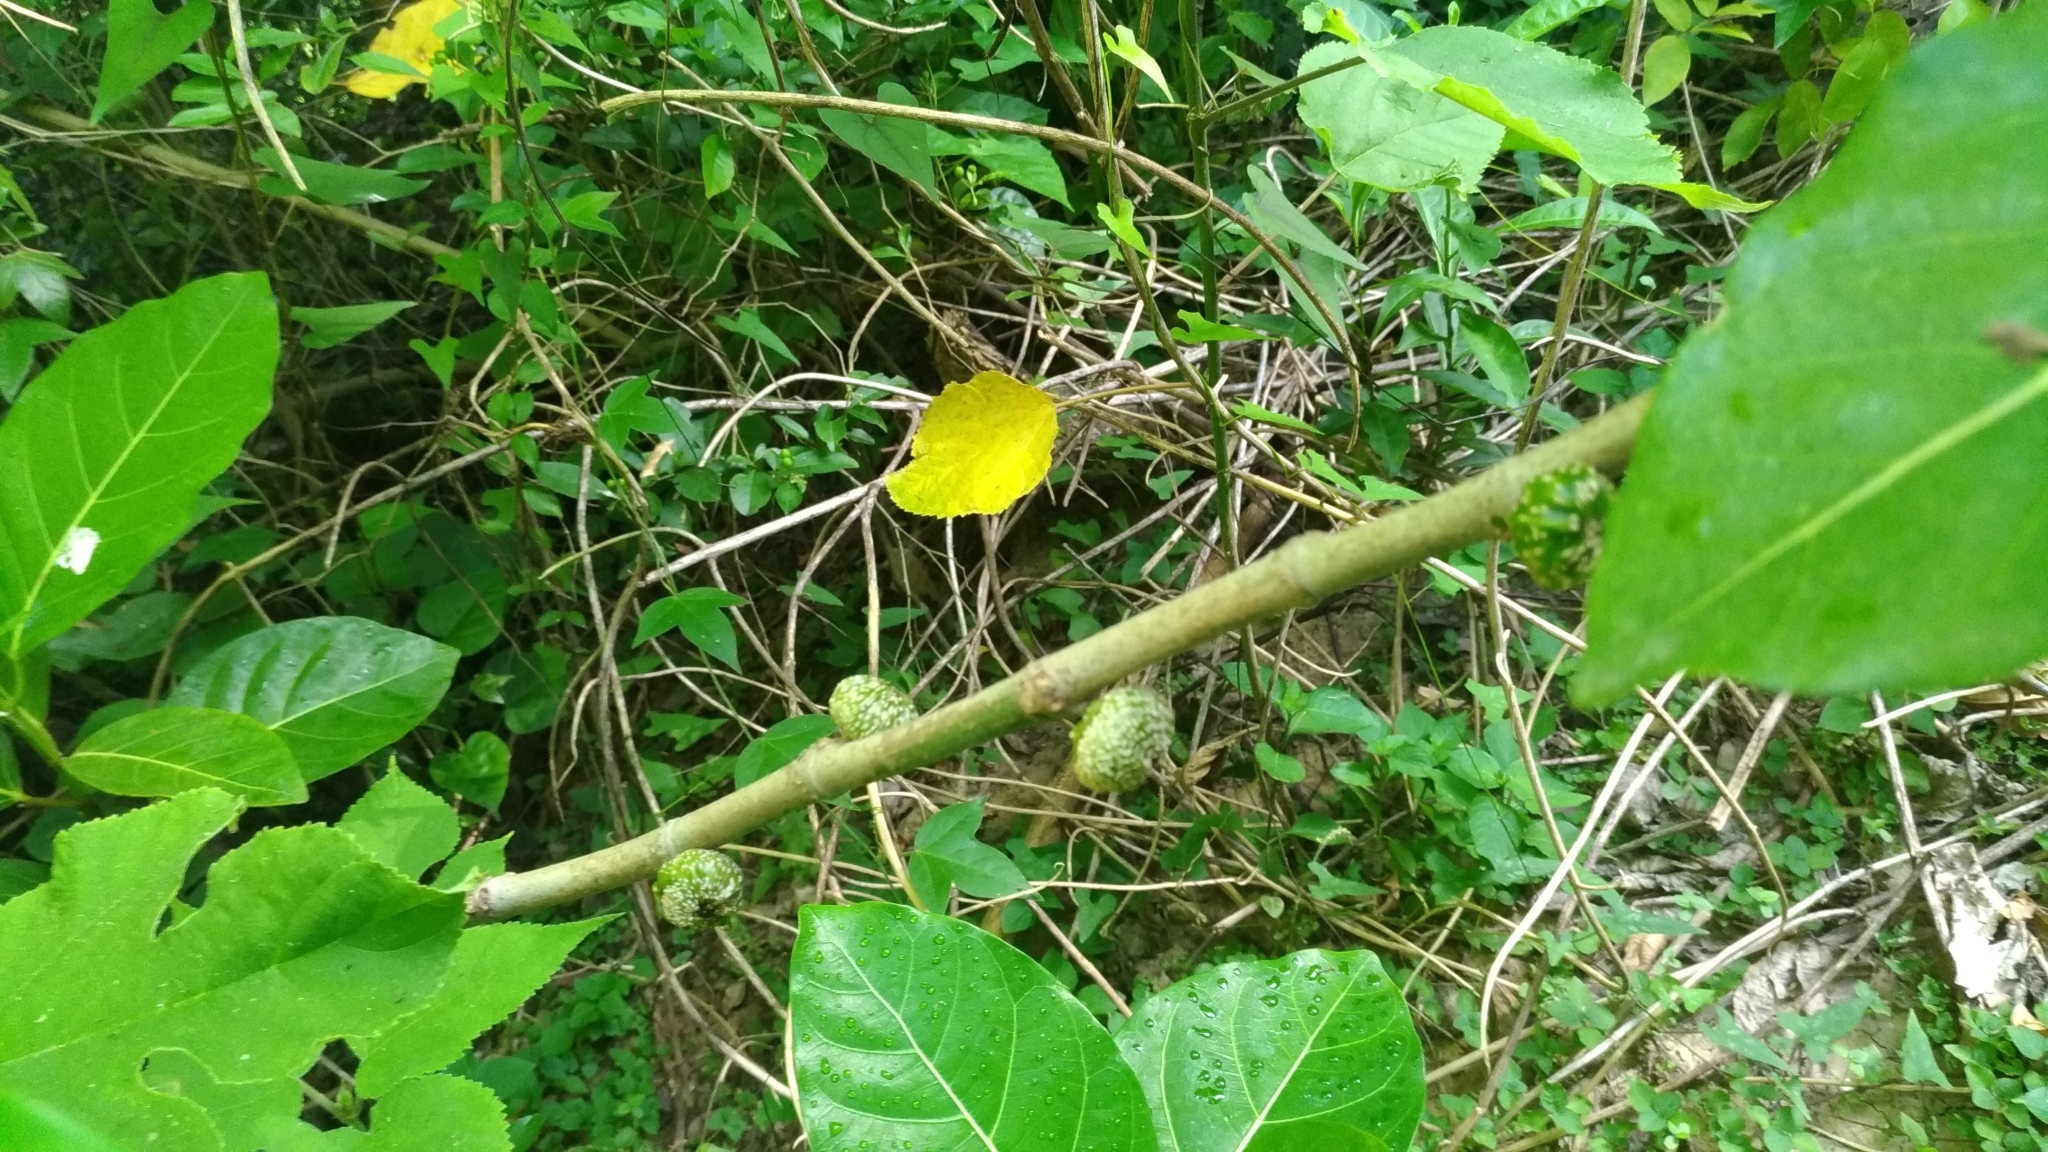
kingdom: Plantae
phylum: Tracheophyta
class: Magnoliopsida
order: Rosales
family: Moraceae
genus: Ficus
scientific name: Ficus septica
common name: Septic fig
